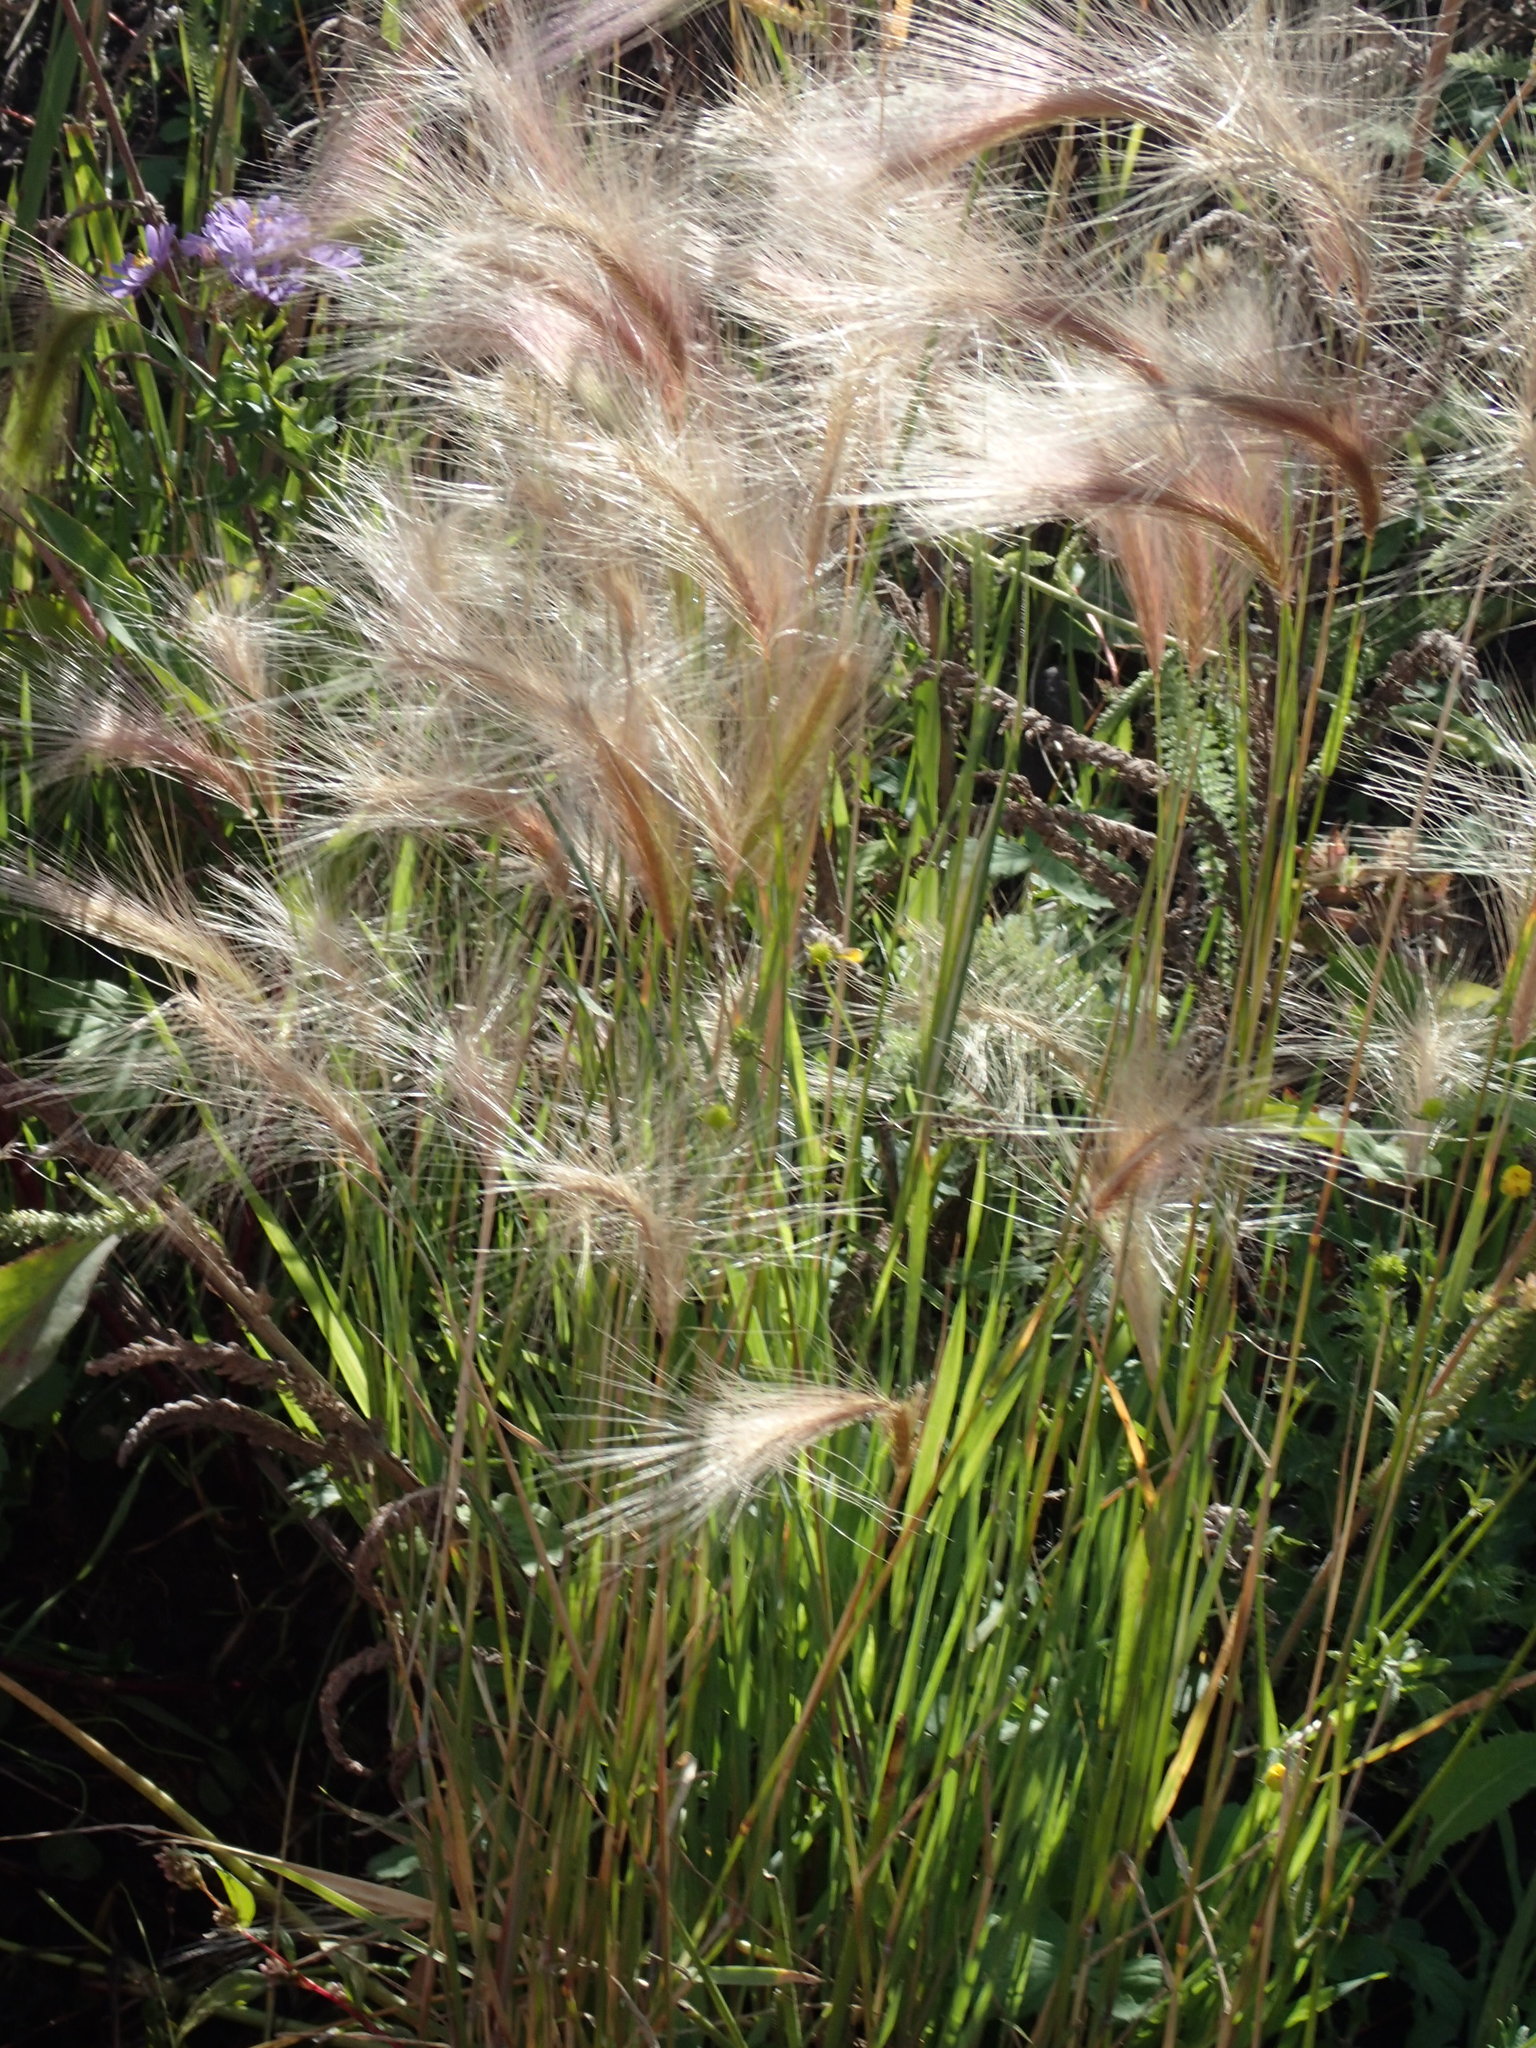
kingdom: Plantae
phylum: Tracheophyta
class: Liliopsida
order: Poales
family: Poaceae
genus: Hordeum
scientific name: Hordeum jubatum
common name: Foxtail barley
